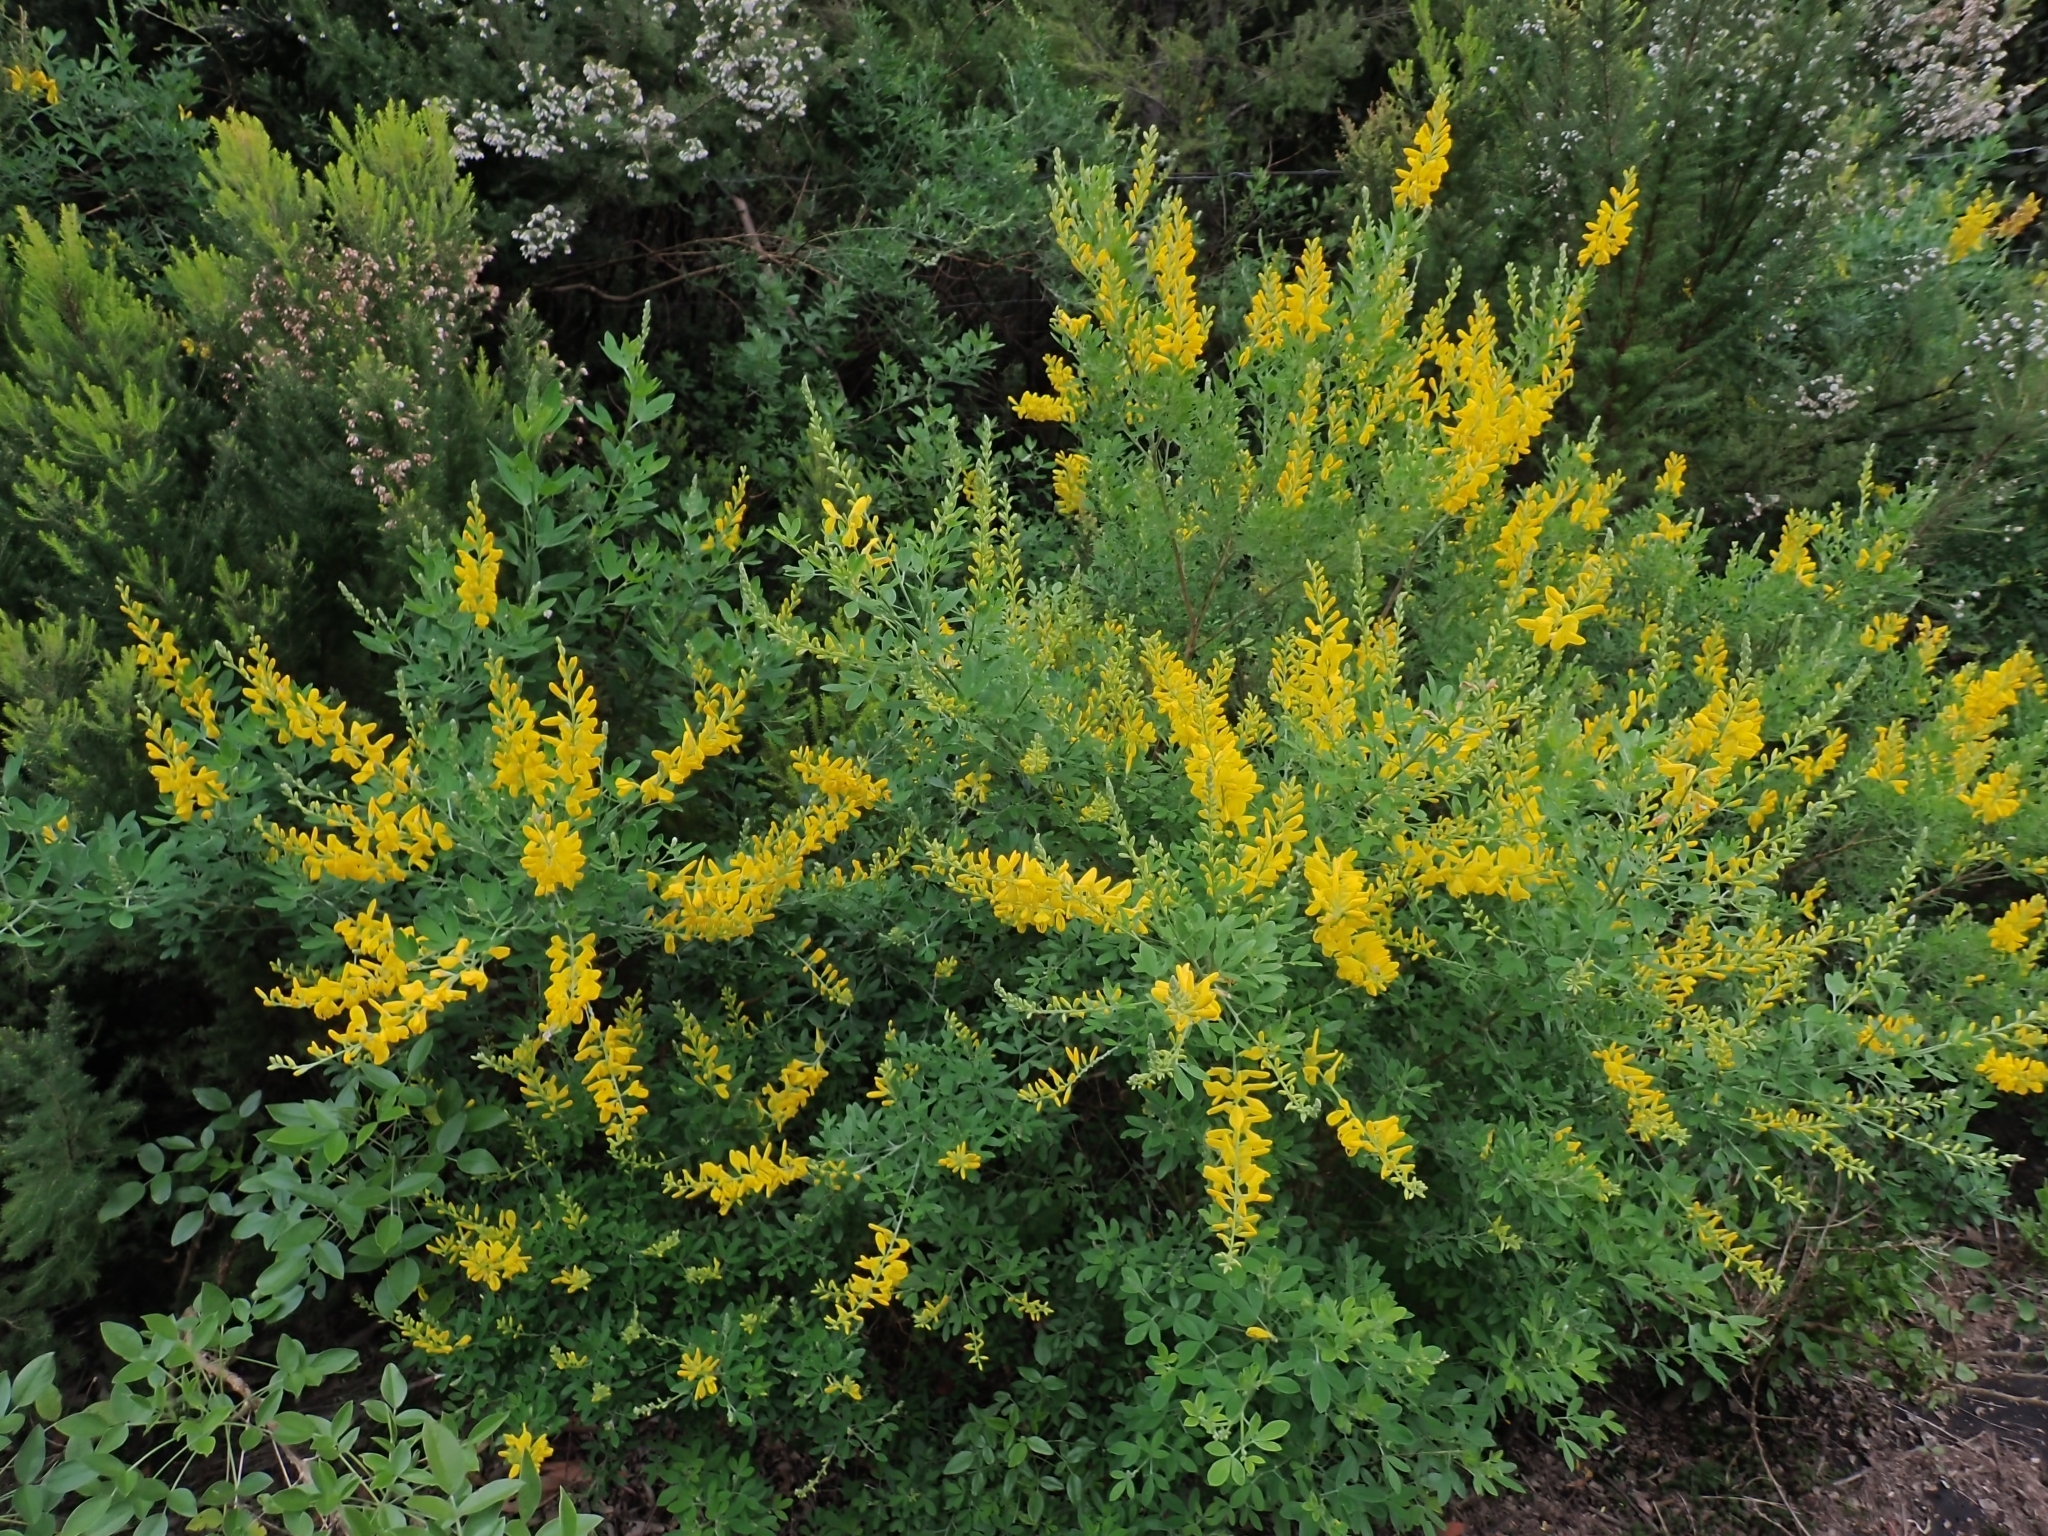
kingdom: Plantae
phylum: Tracheophyta
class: Magnoliopsida
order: Fabales
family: Fabaceae
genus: Genista
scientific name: Genista stenopetala
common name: Leafy broom
